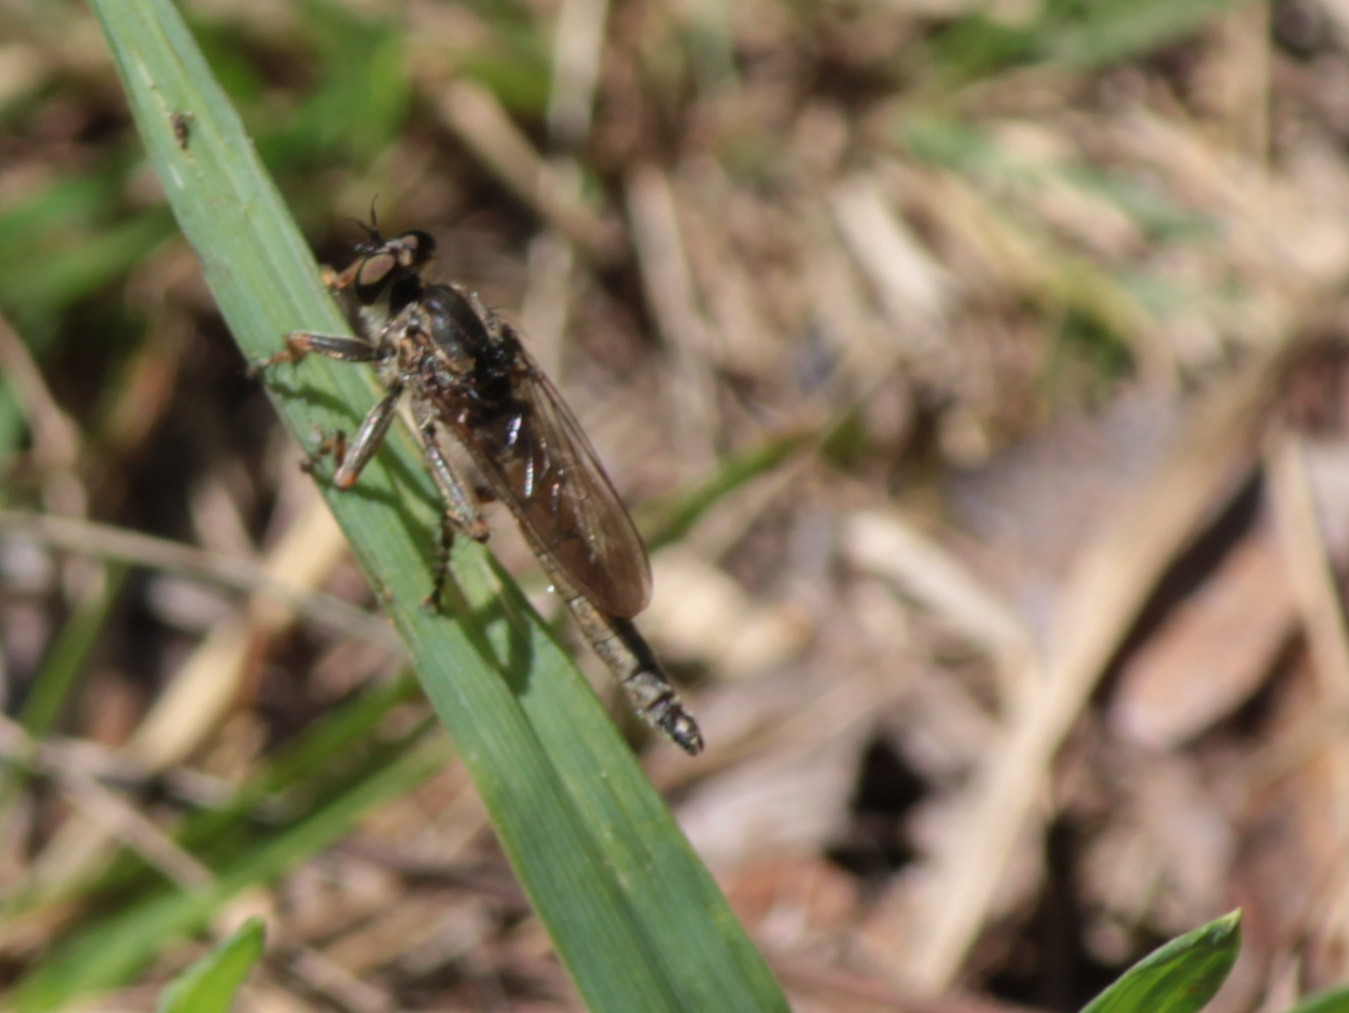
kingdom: Animalia
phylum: Arthropoda
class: Insecta
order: Diptera
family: Asilidae
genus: Machimus
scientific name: Machimus snowii
